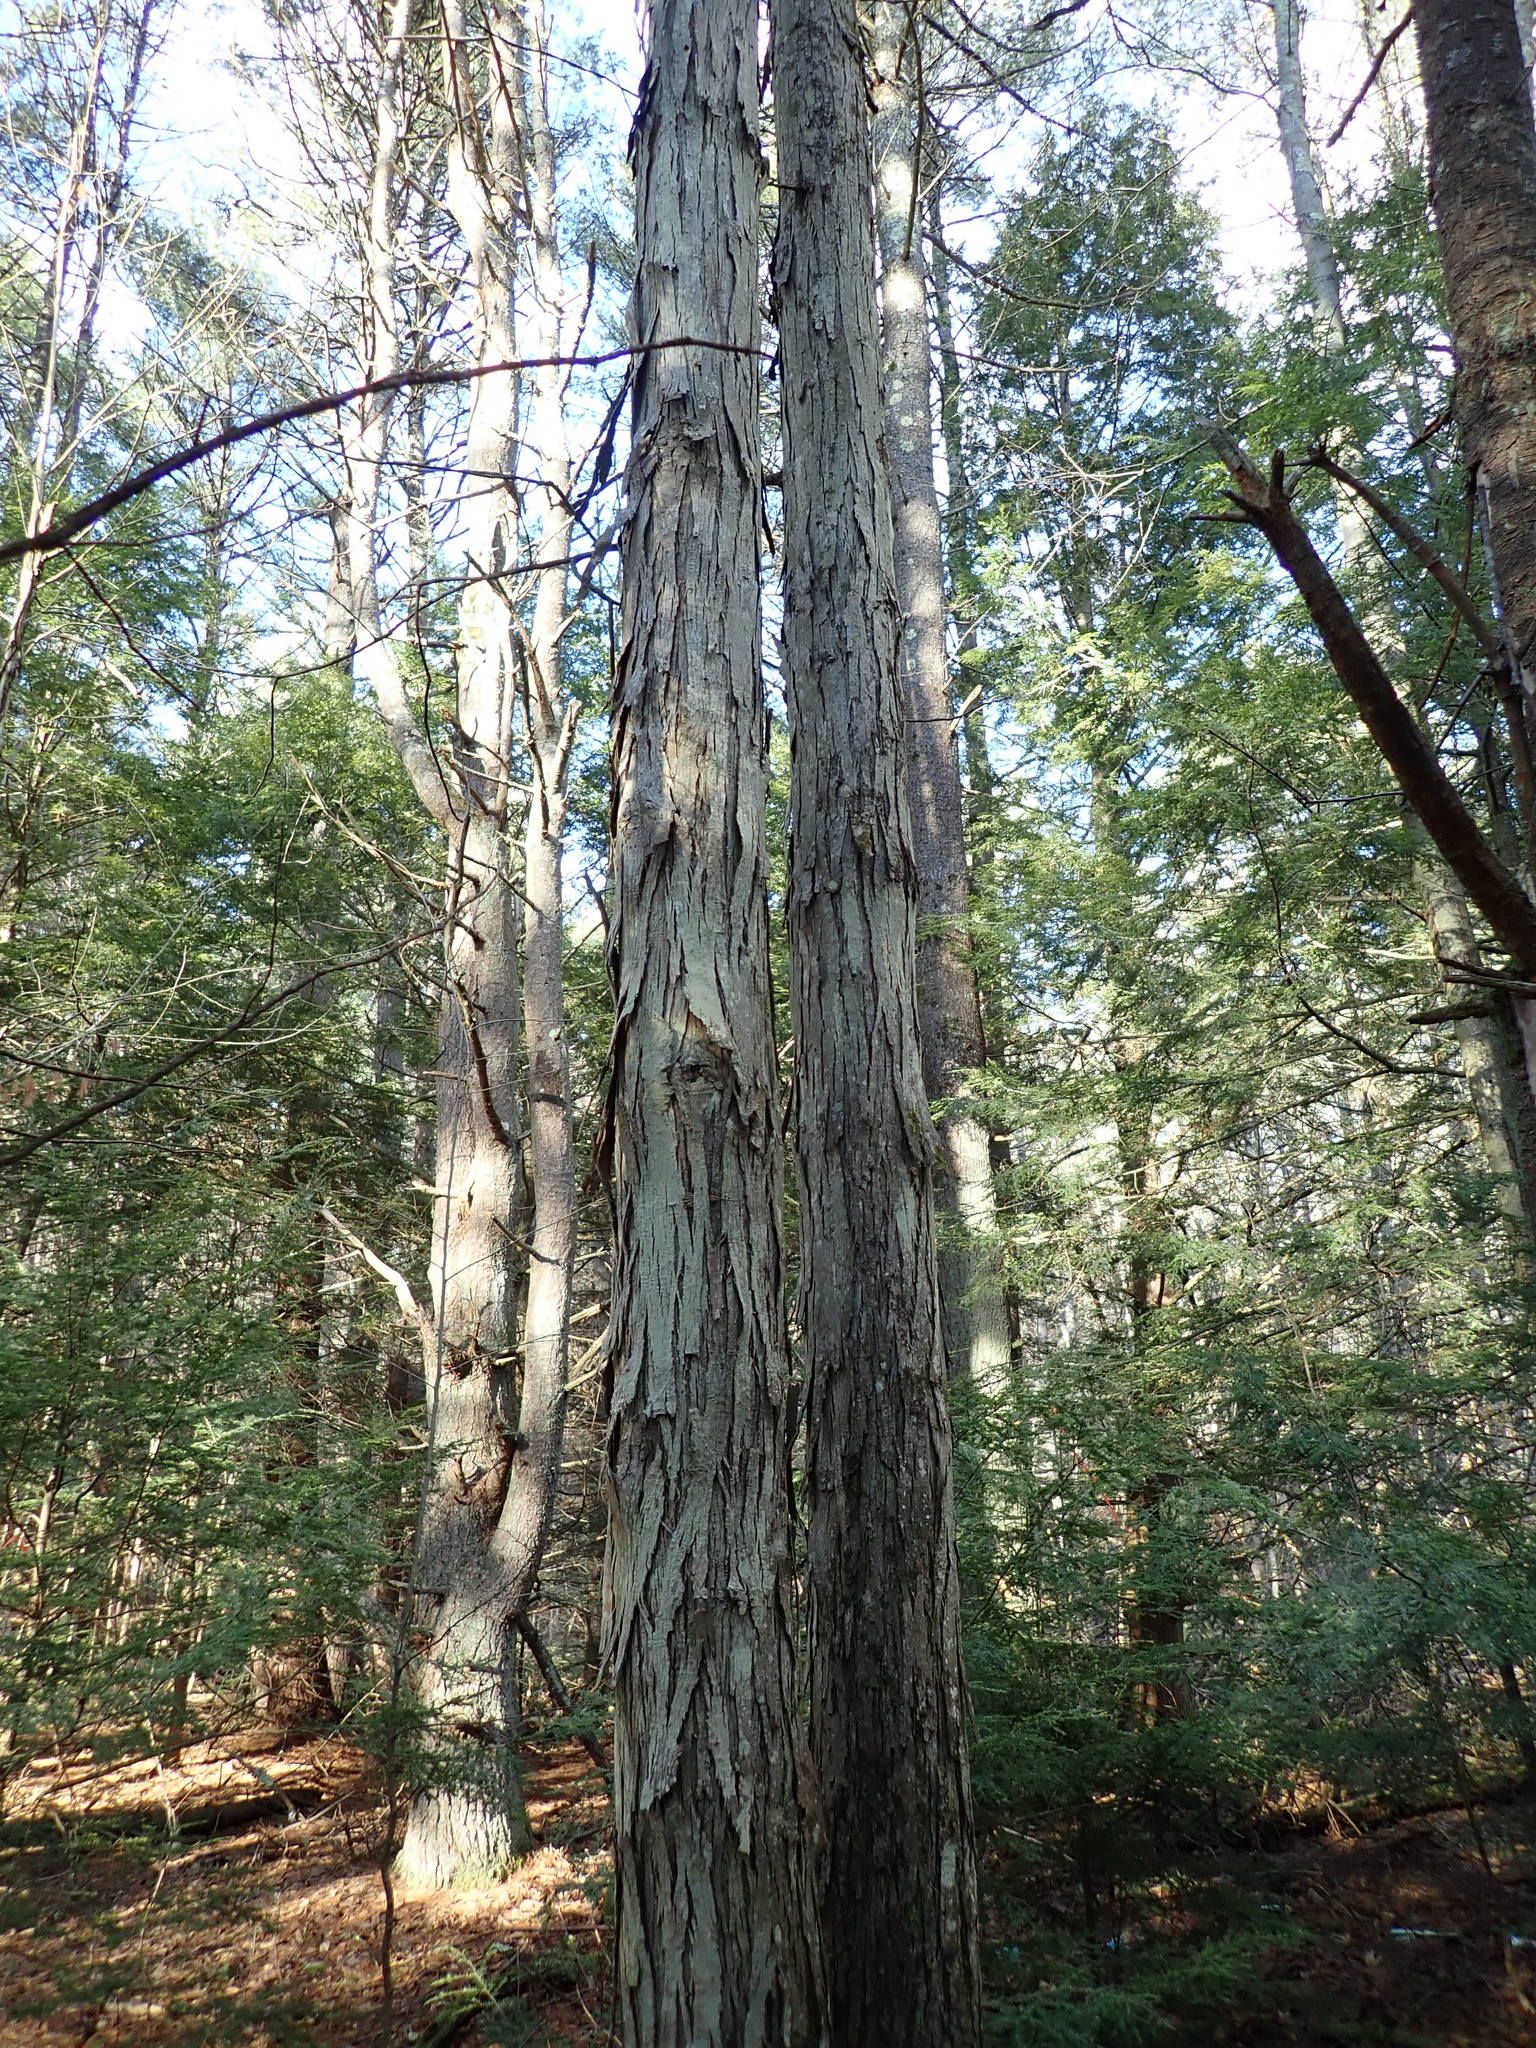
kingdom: Plantae
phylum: Tracheophyta
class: Magnoliopsida
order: Fagales
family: Juglandaceae
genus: Carya
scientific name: Carya ovata
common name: Shagbark hickory
